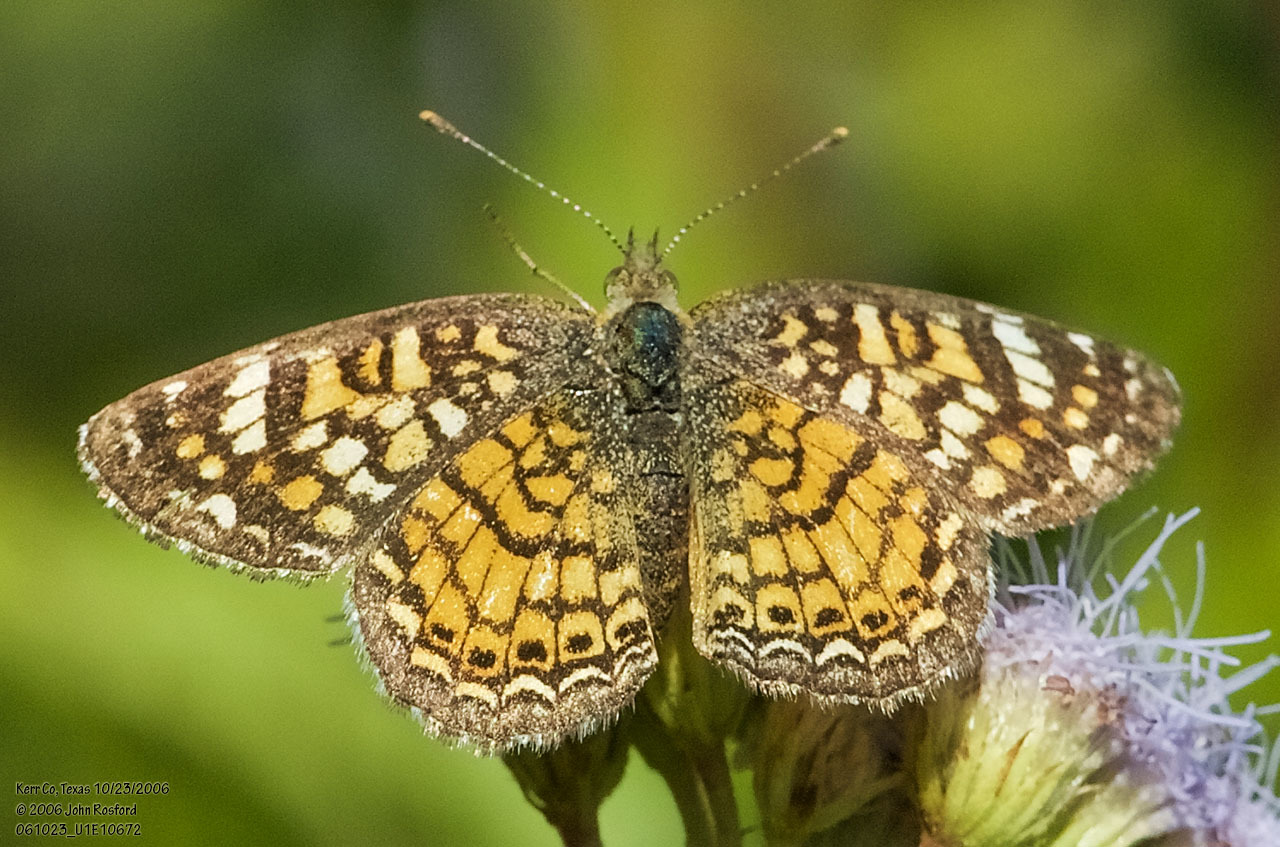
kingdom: Animalia
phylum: Arthropoda
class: Insecta
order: Lepidoptera
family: Nymphalidae
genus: Phyciodes
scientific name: Phyciodes vesta
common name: Vesta crescent
